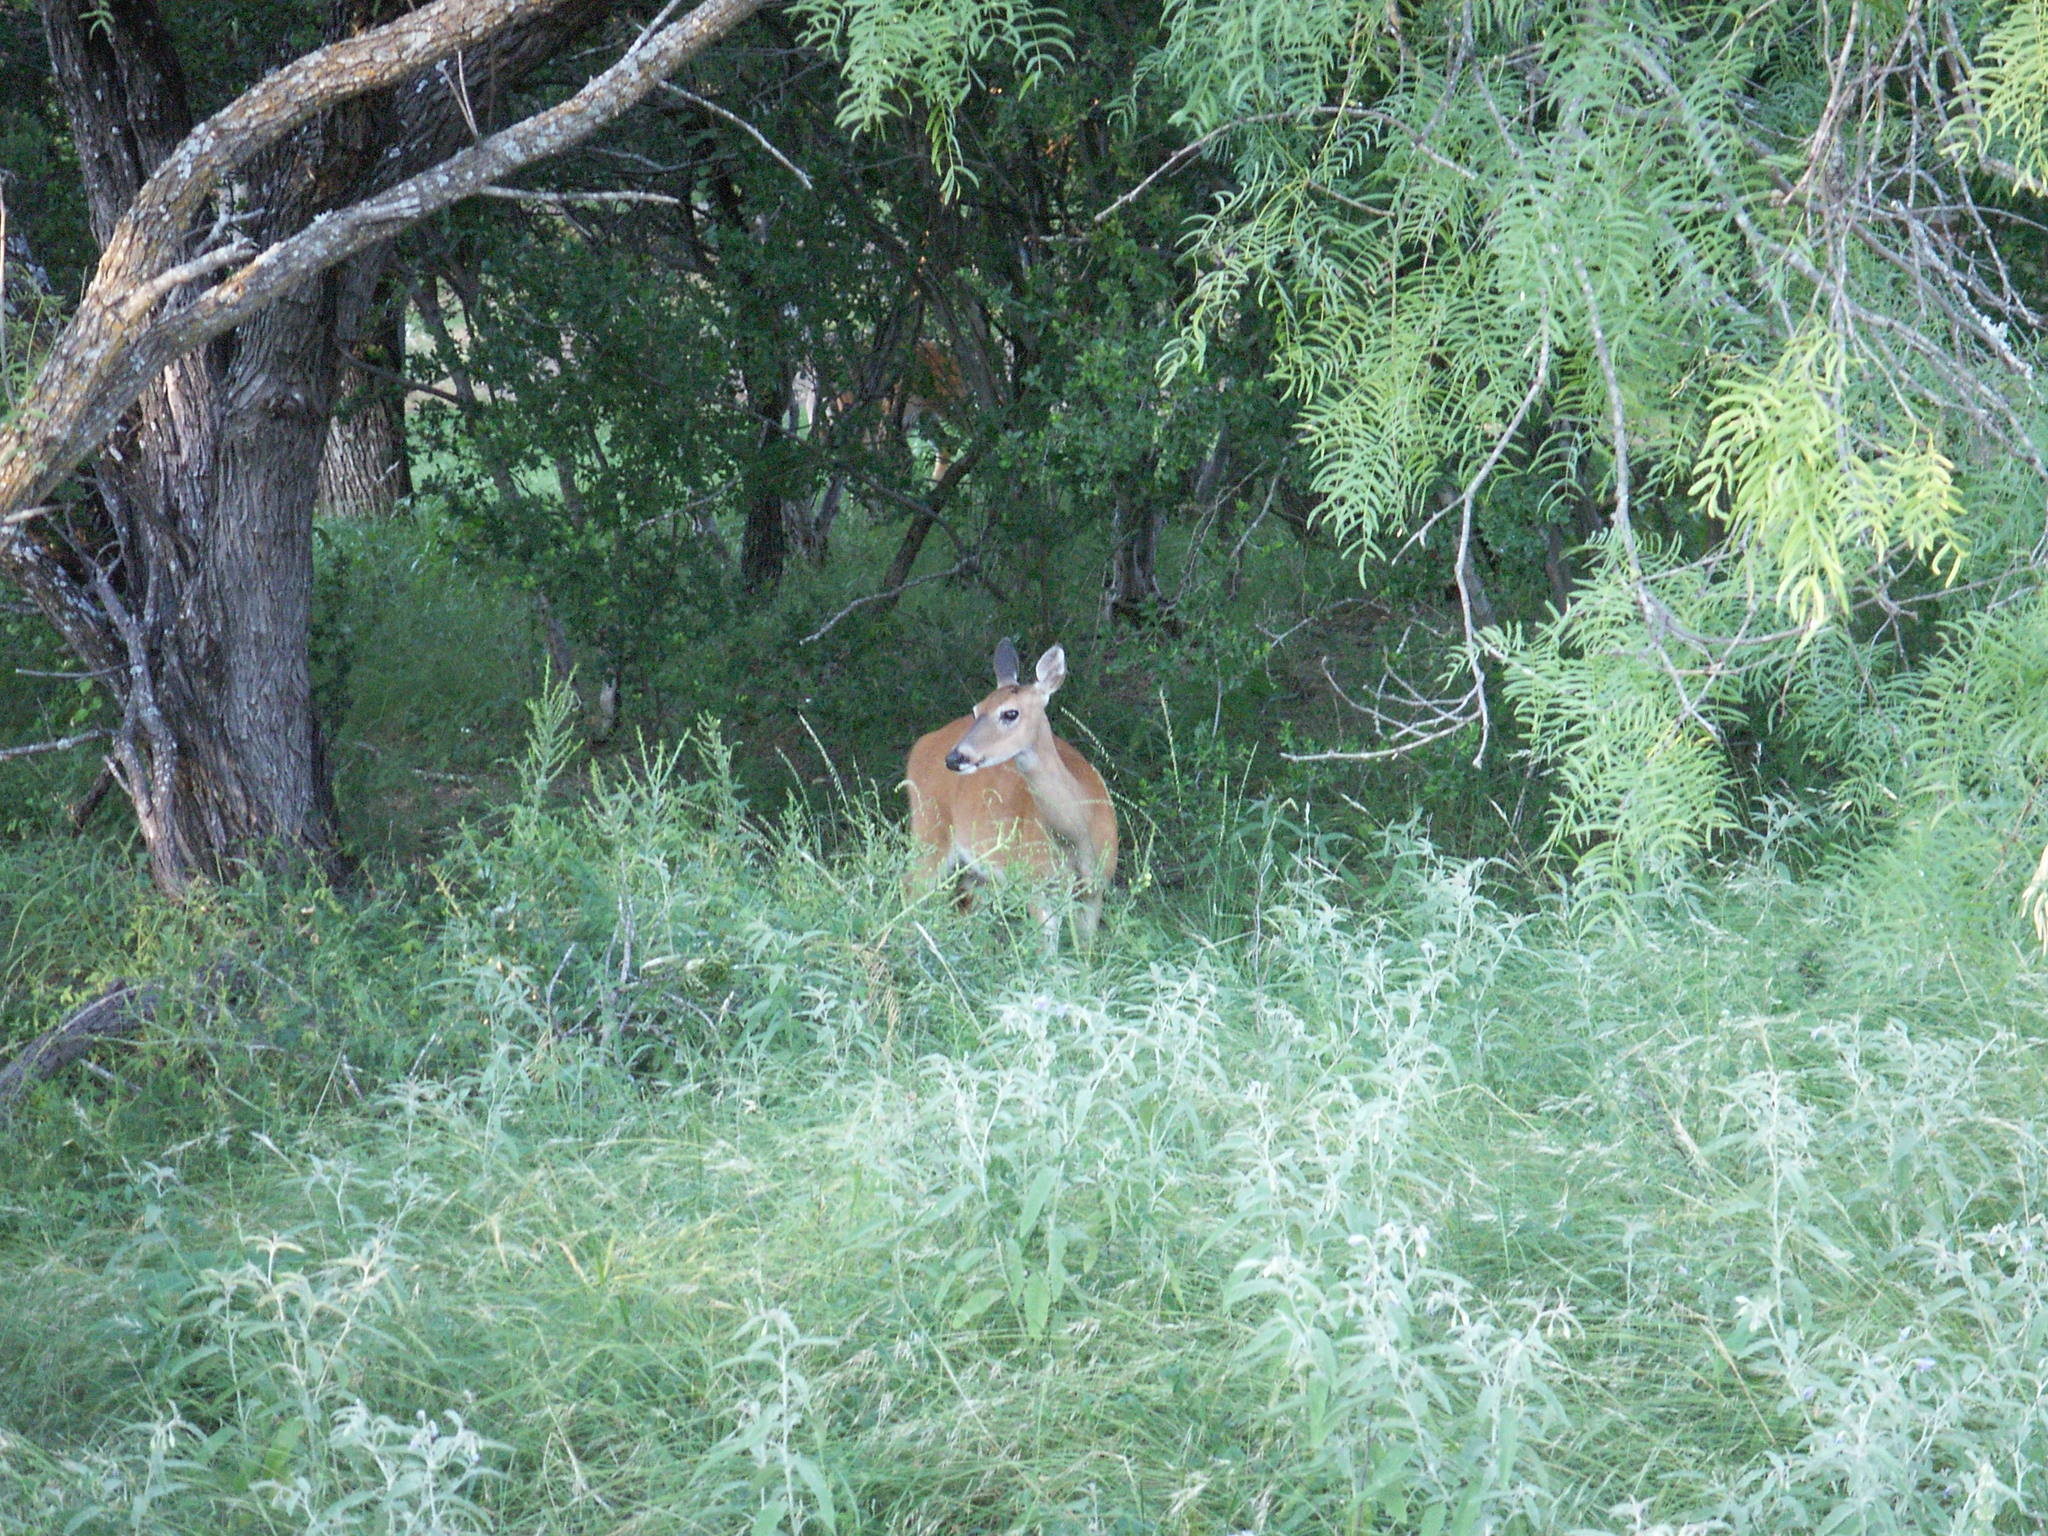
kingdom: Animalia
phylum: Chordata
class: Mammalia
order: Artiodactyla
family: Cervidae
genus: Odocoileus
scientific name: Odocoileus virginianus
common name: White-tailed deer
